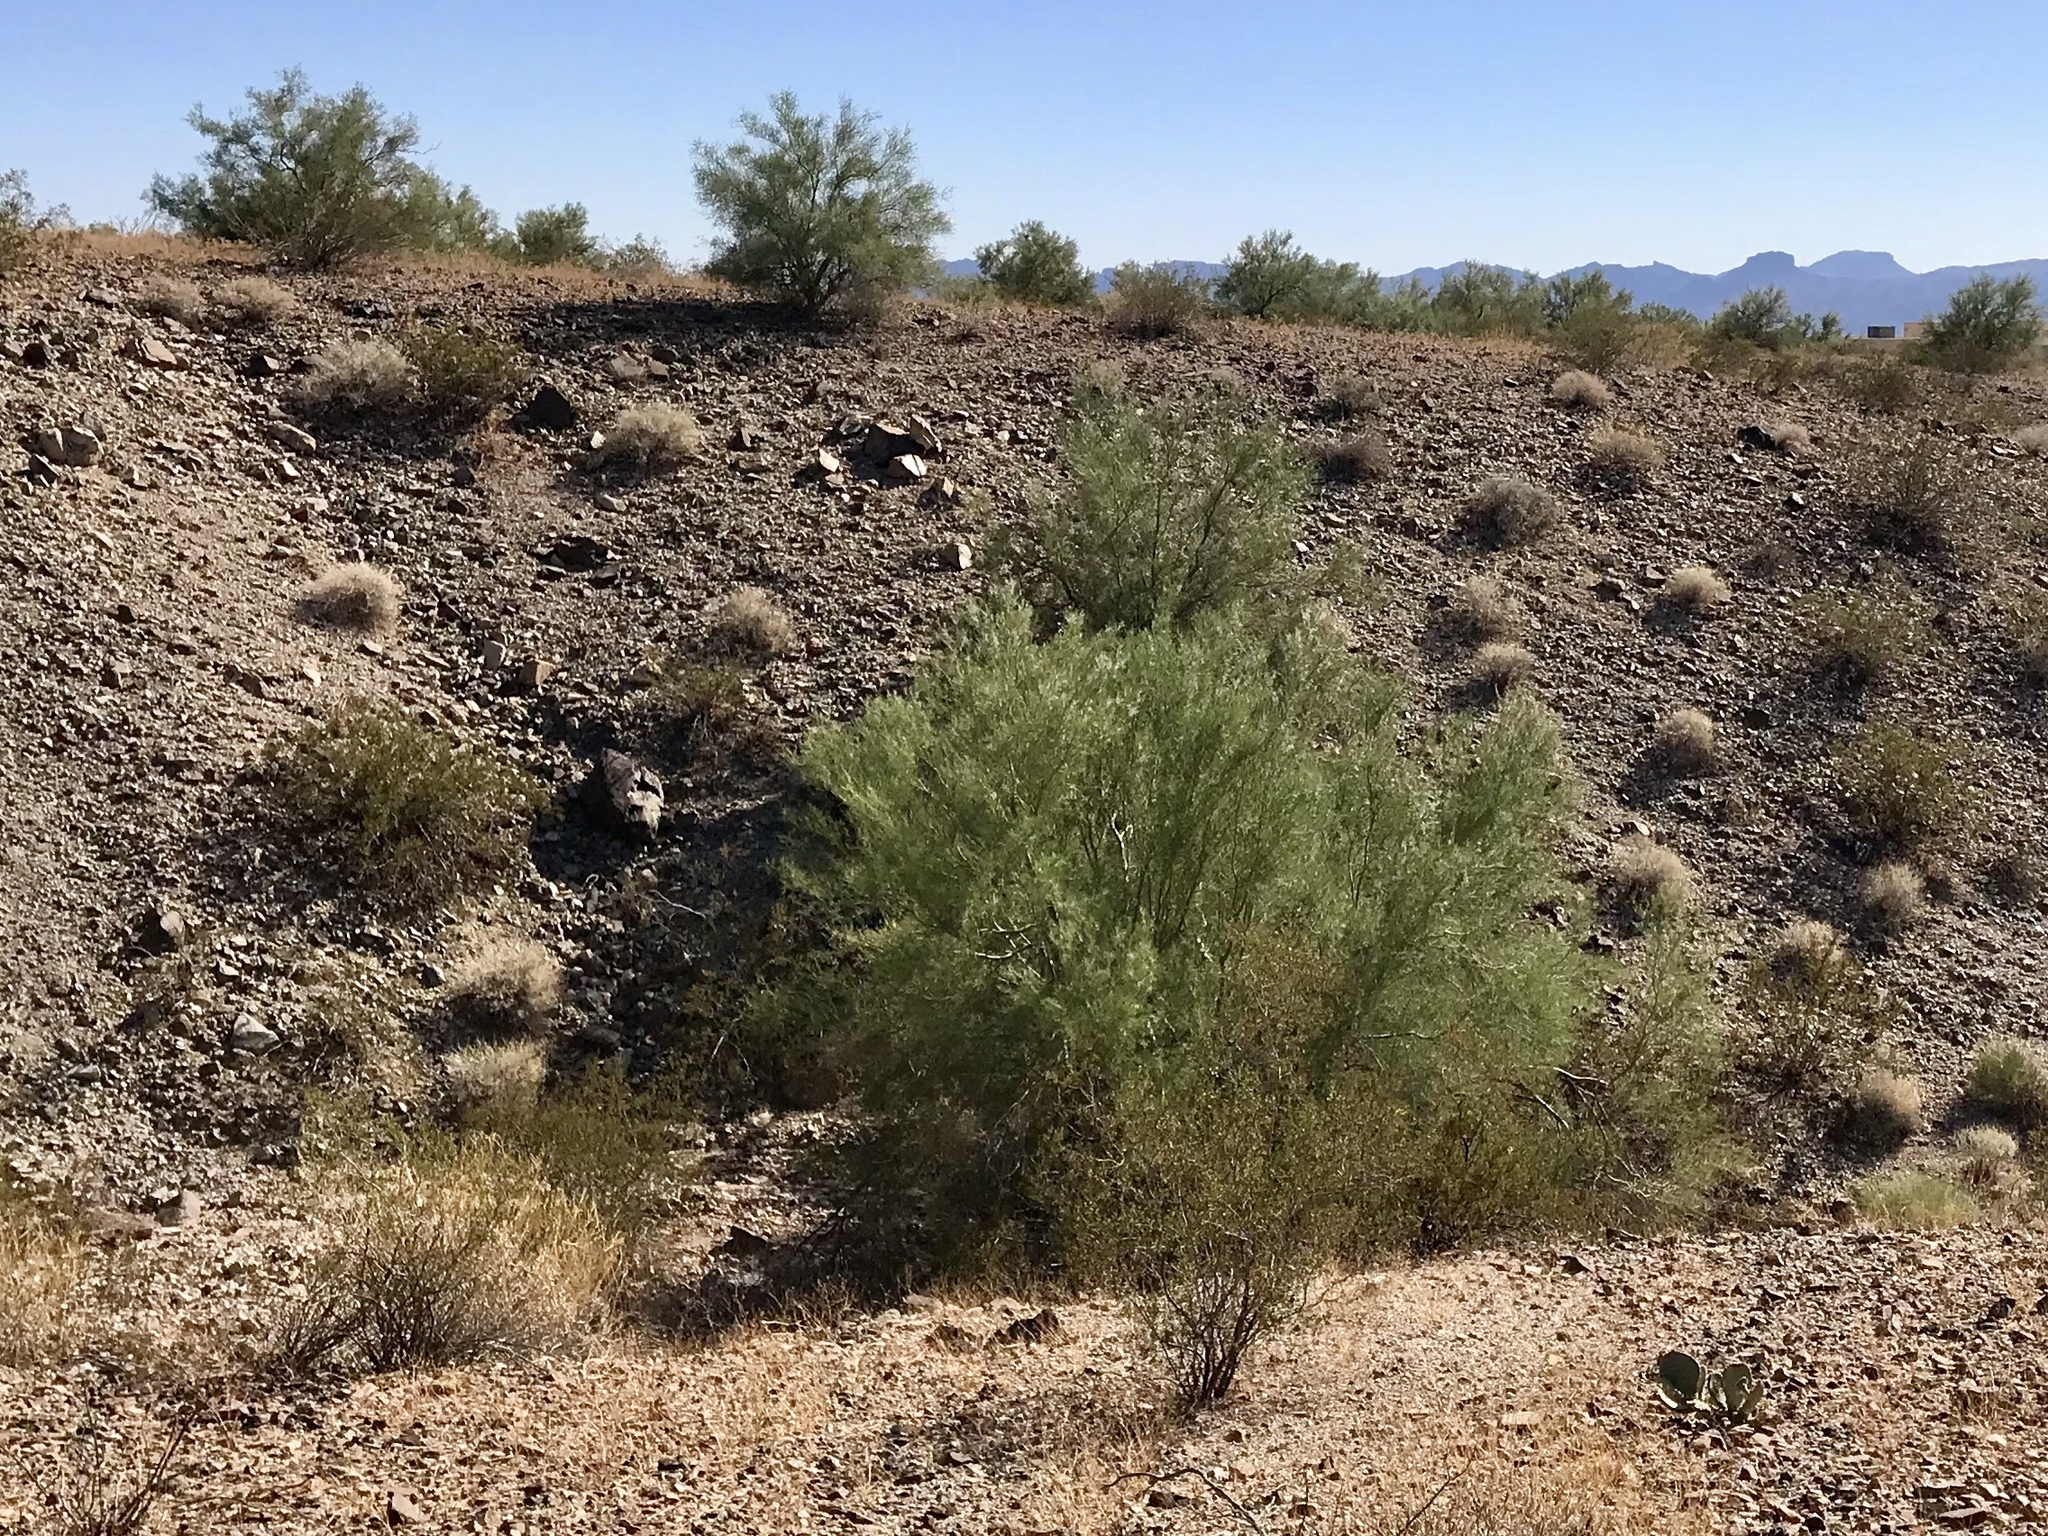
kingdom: Plantae
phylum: Tracheophyta
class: Magnoliopsida
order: Fabales
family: Fabaceae
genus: Parkinsonia
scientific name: Parkinsonia florida
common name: Blue paloverde
